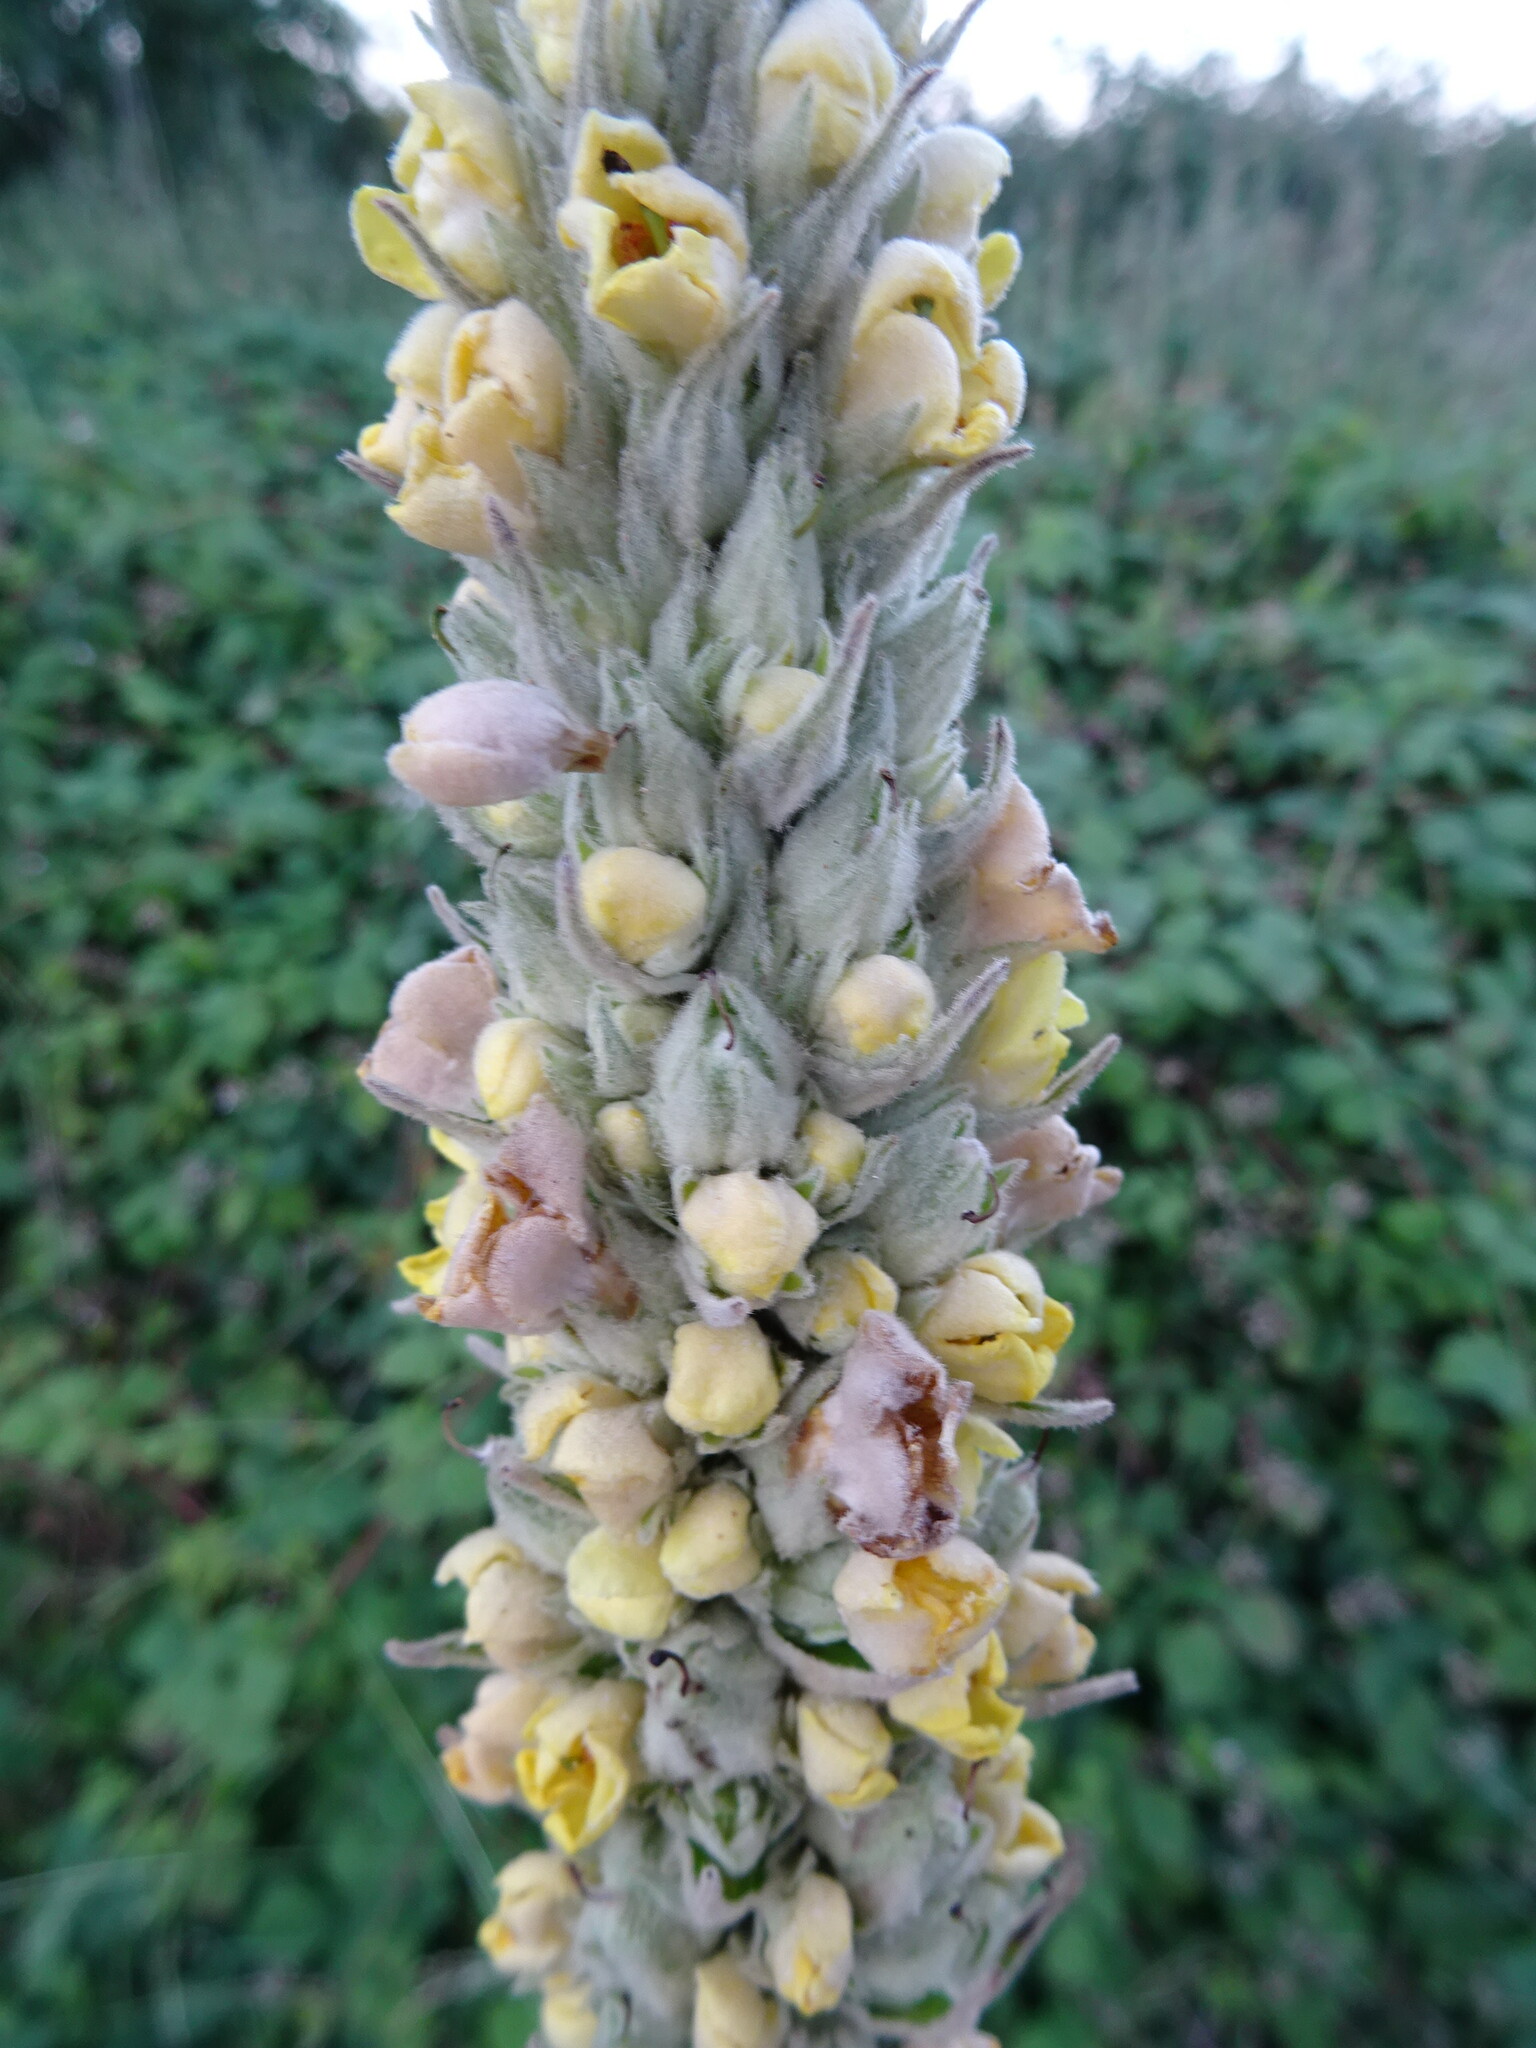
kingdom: Plantae
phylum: Tracheophyta
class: Magnoliopsida
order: Lamiales
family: Scrophulariaceae
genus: Verbascum
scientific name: Verbascum thapsus
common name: Common mullein
